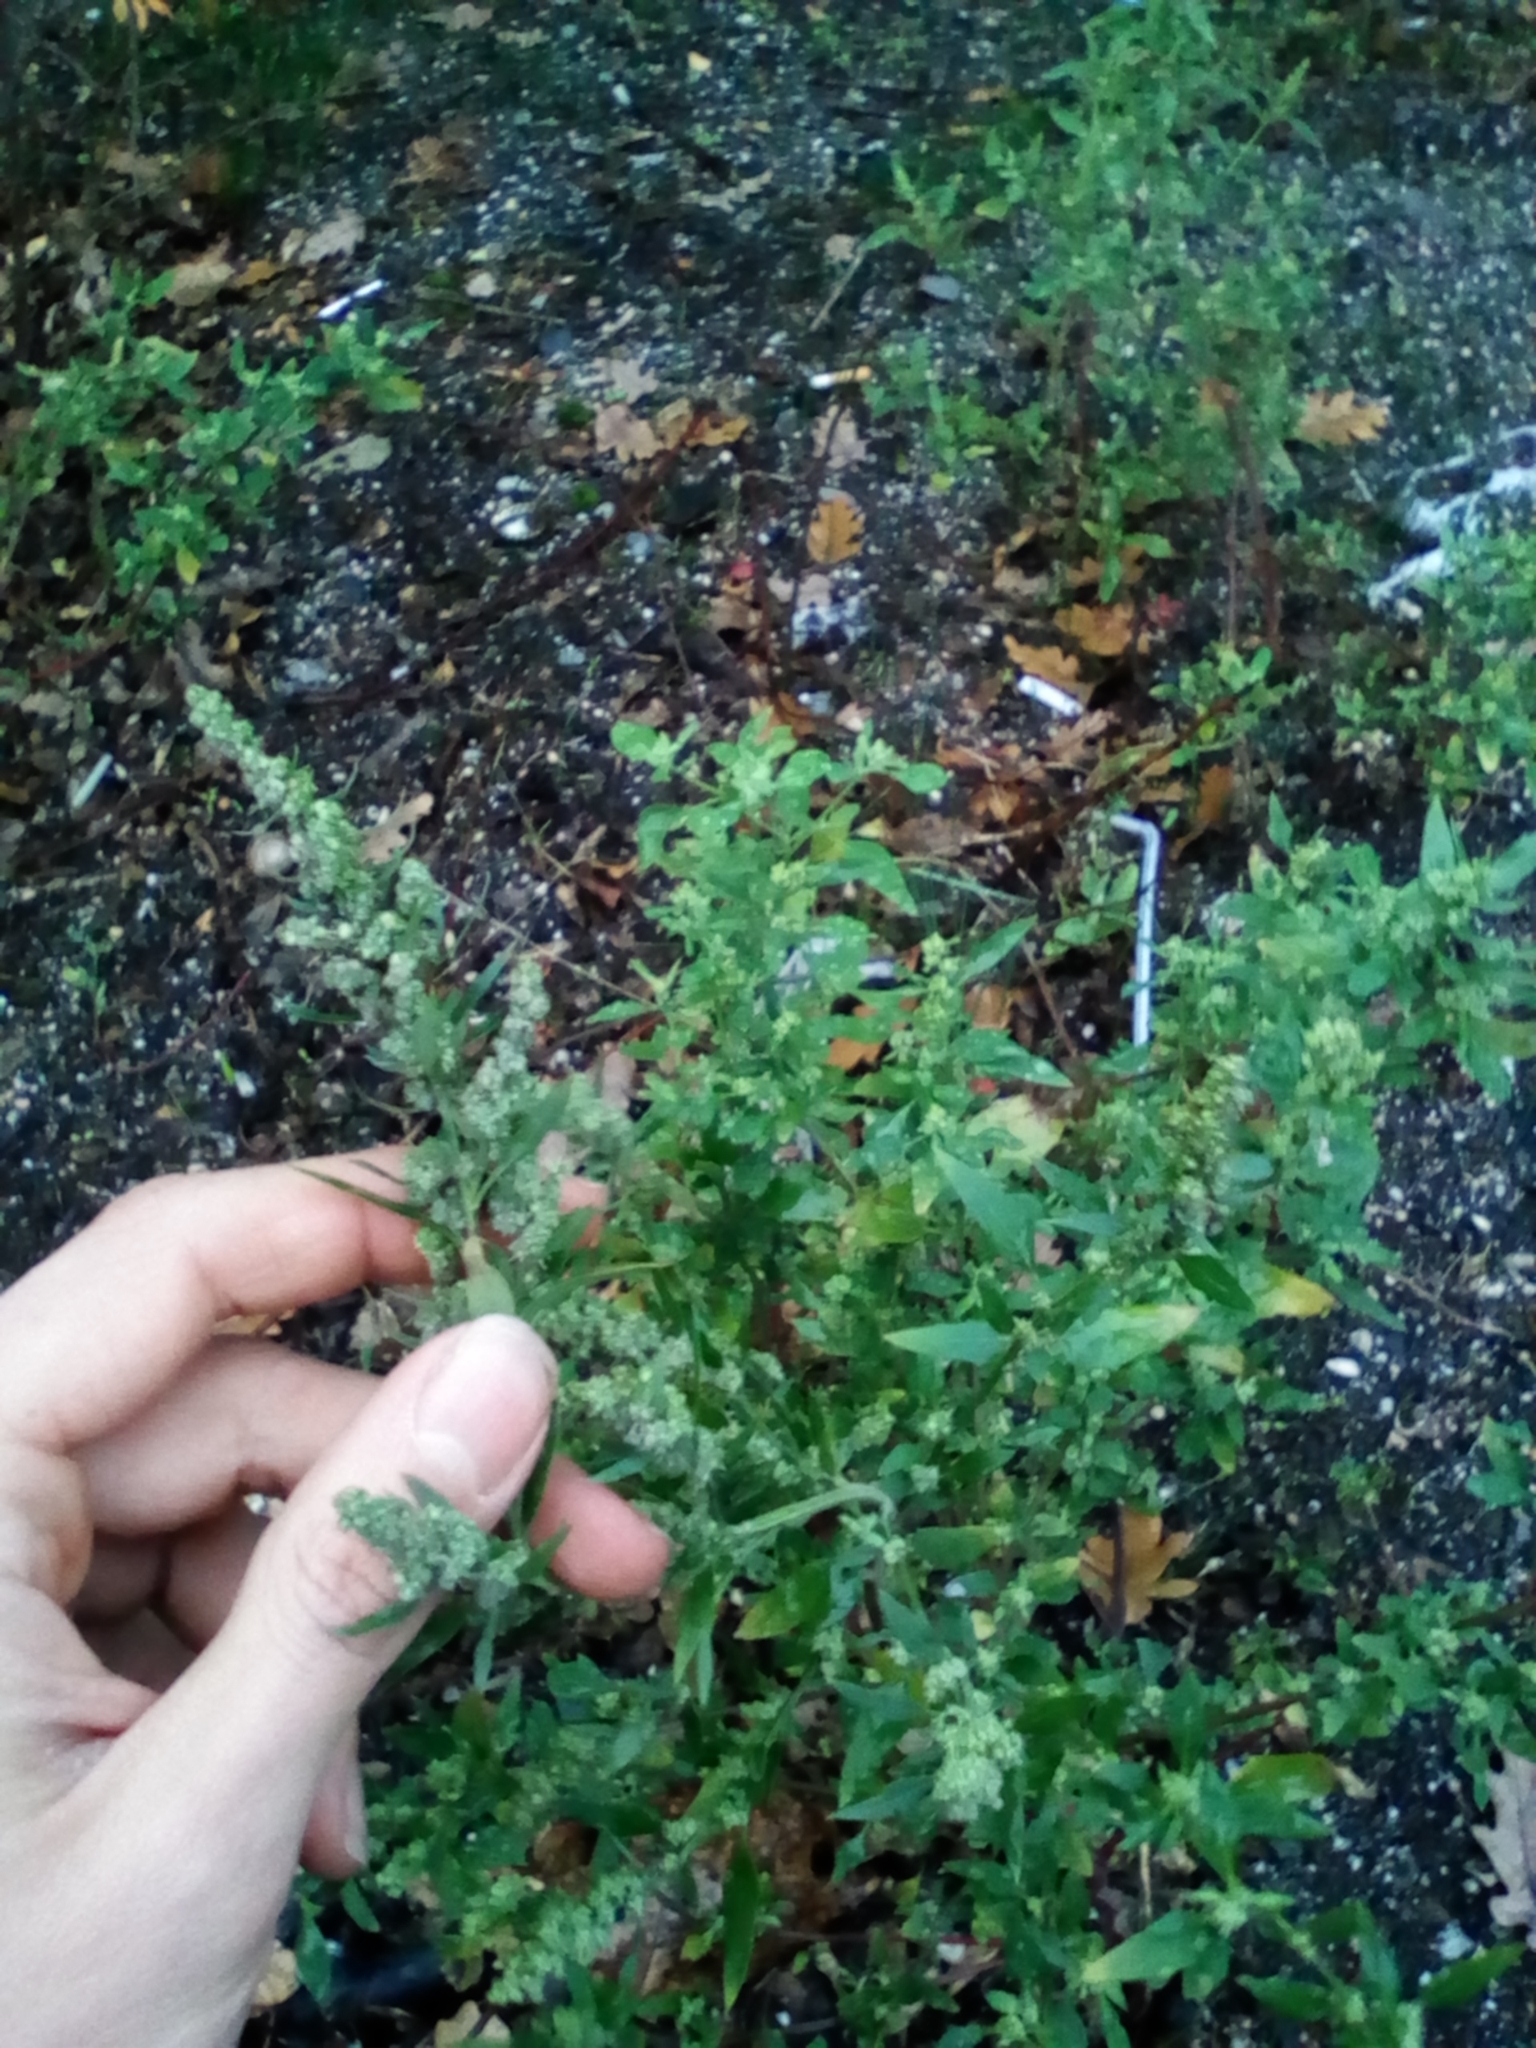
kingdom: Plantae
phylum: Tracheophyta
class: Magnoliopsida
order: Caryophyllales
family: Amaranthaceae
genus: Chenopodium
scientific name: Chenopodium album
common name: Fat-hen
